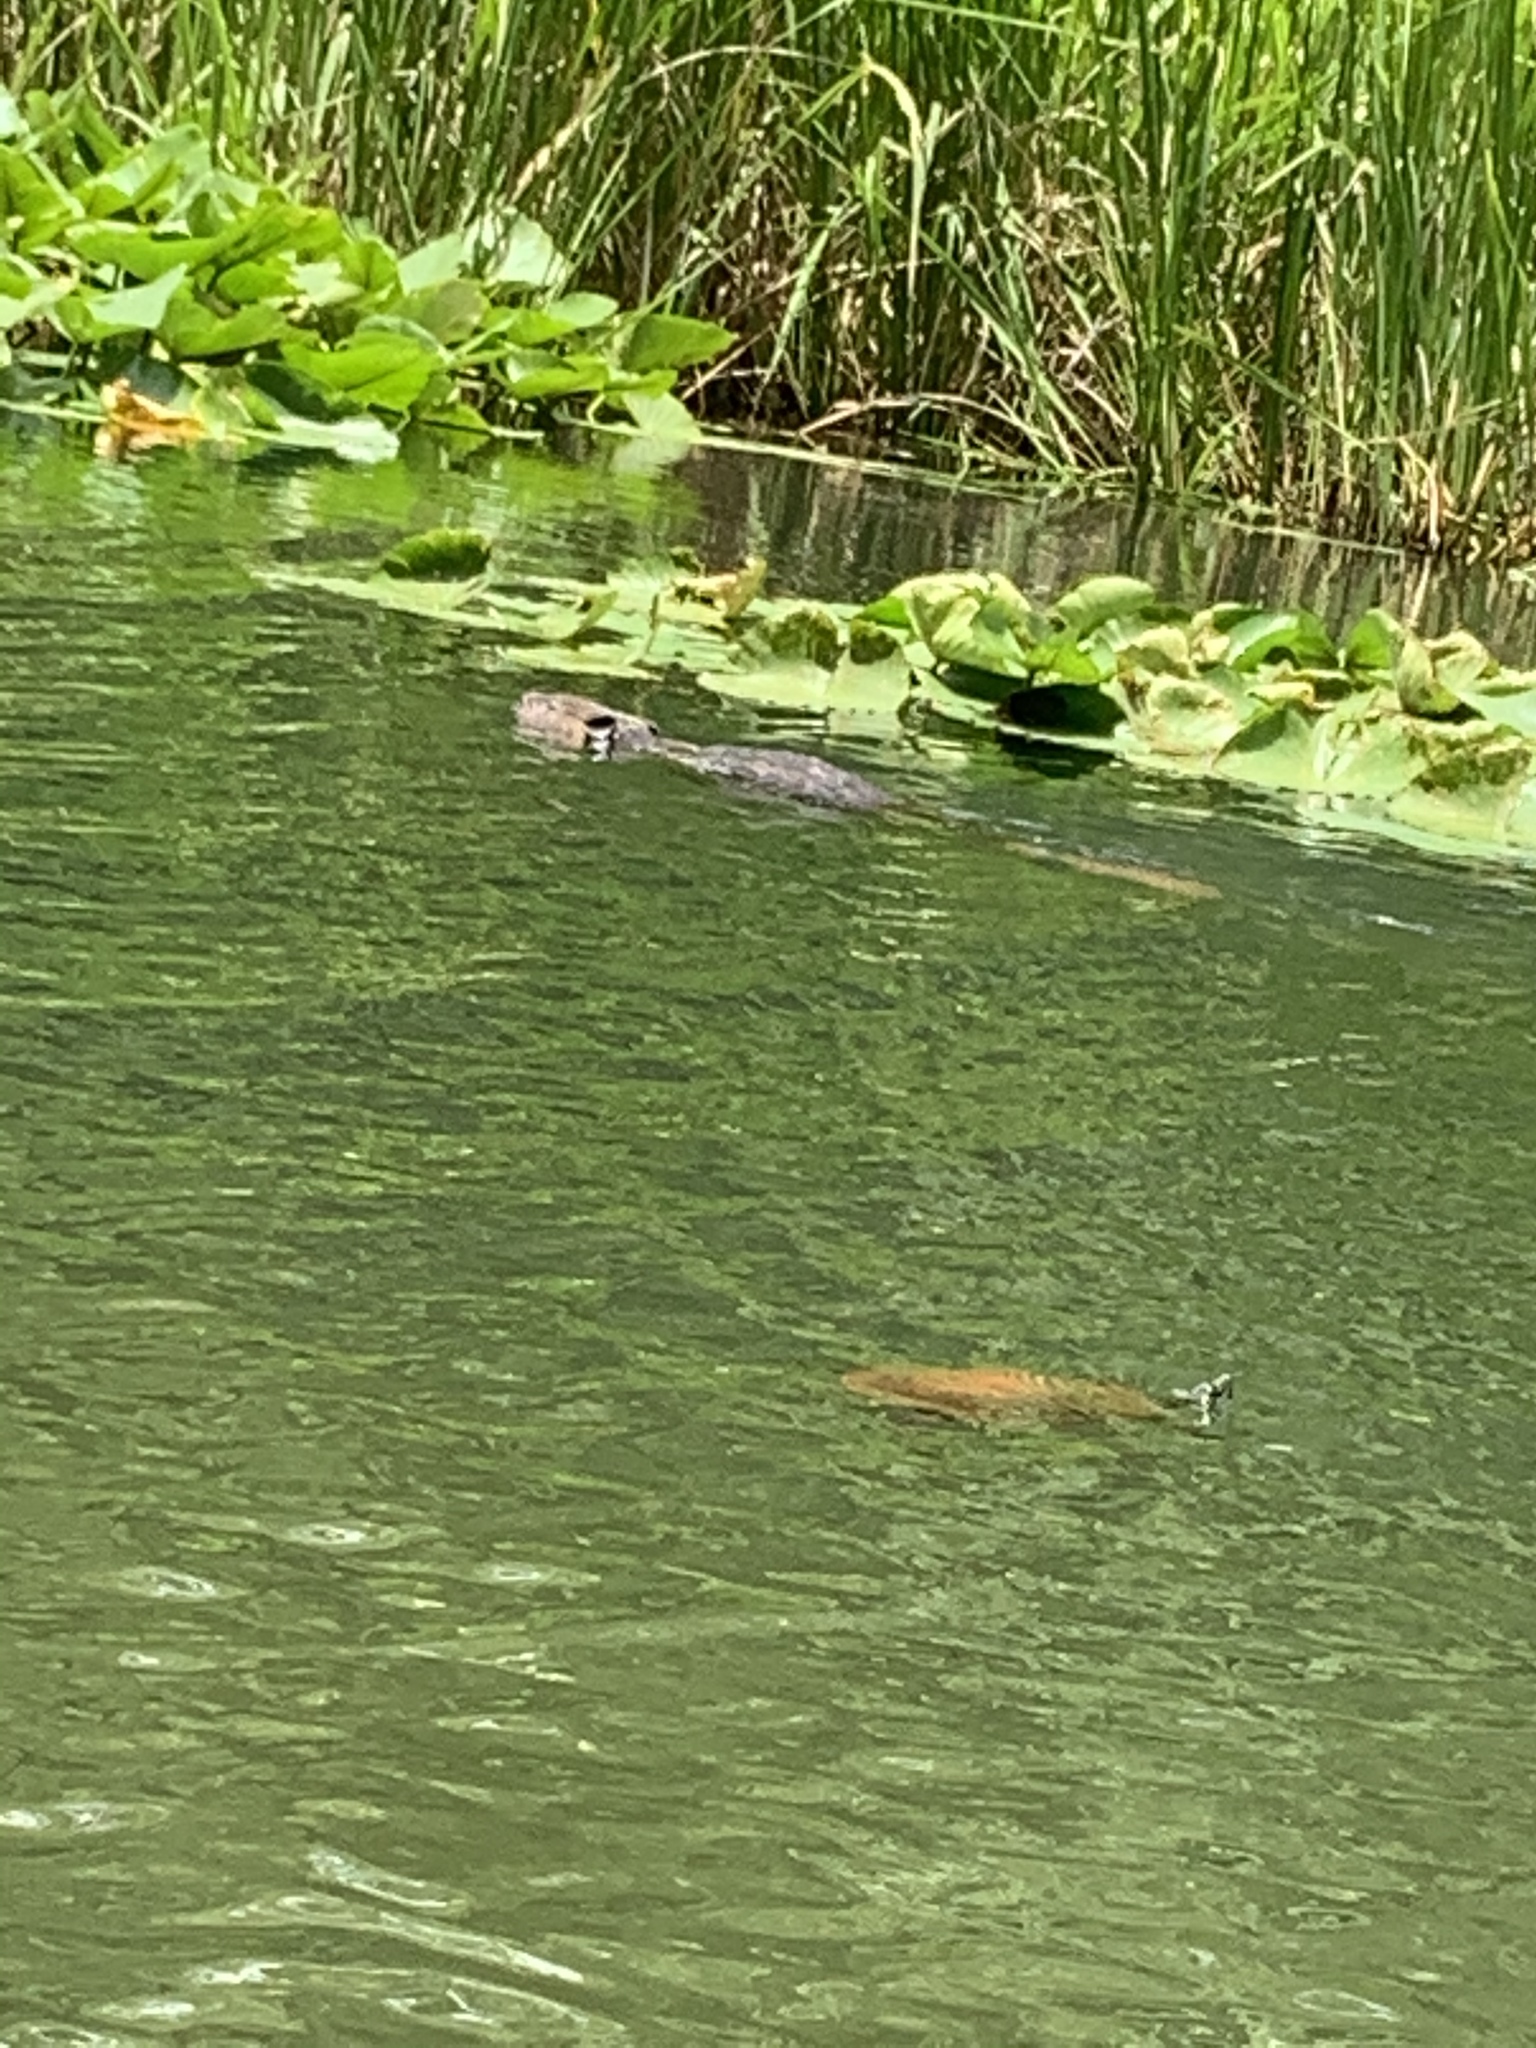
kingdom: Animalia
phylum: Chordata
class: Mammalia
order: Rodentia
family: Castoridae
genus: Castor
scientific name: Castor canadensis
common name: American beaver
